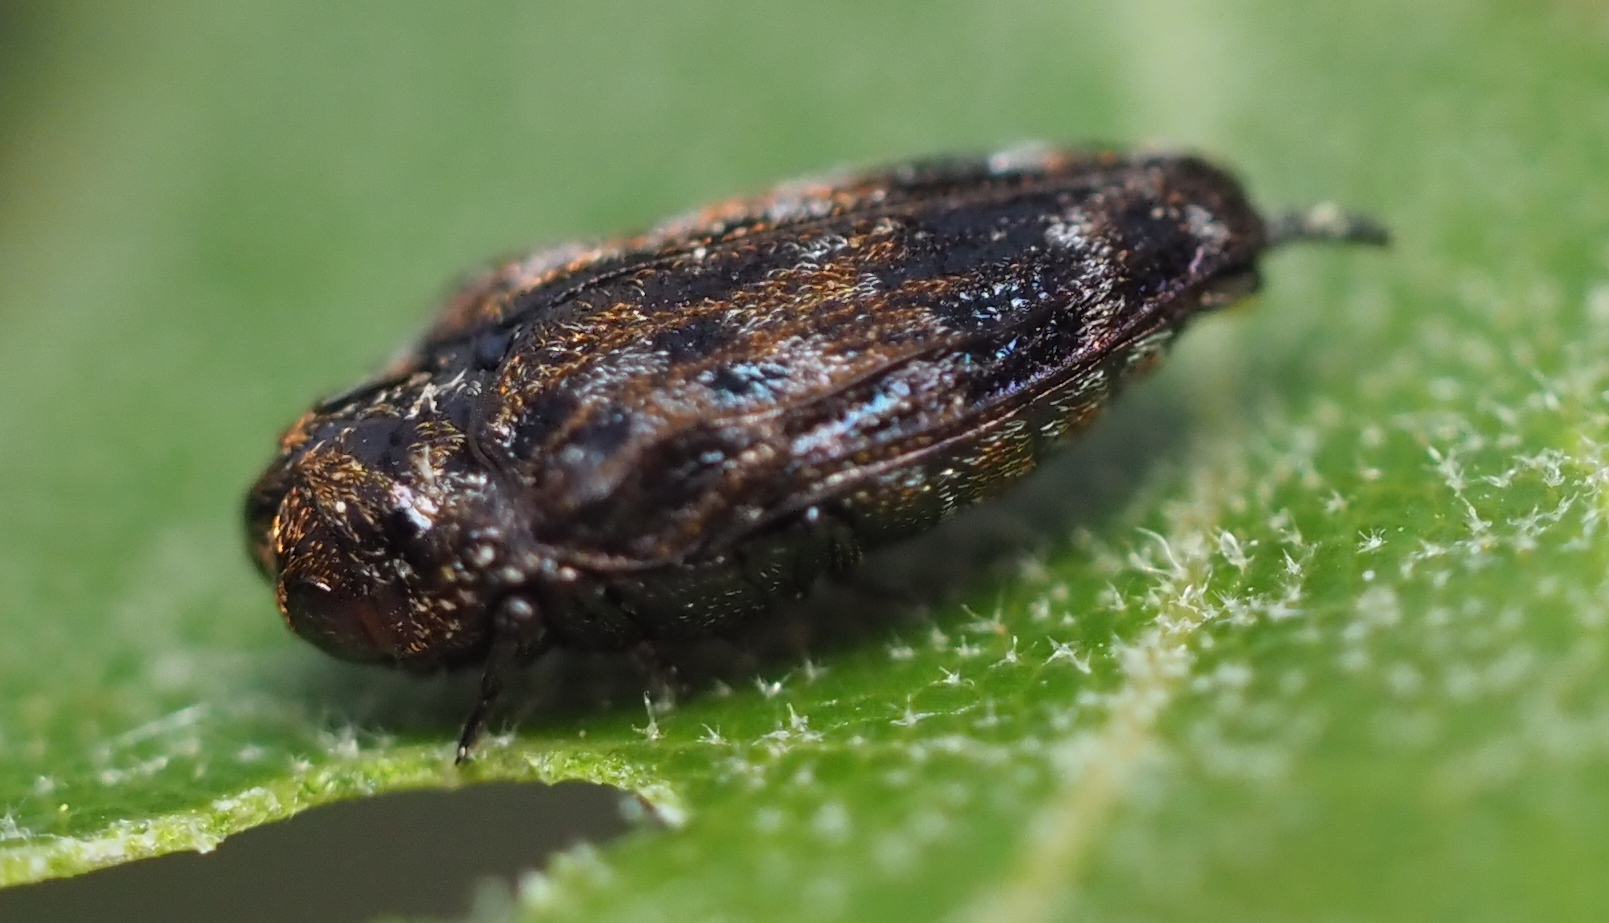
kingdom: Animalia
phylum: Arthropoda
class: Insecta
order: Coleoptera
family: Buprestidae
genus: Brachys
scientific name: Brachys ovatus
